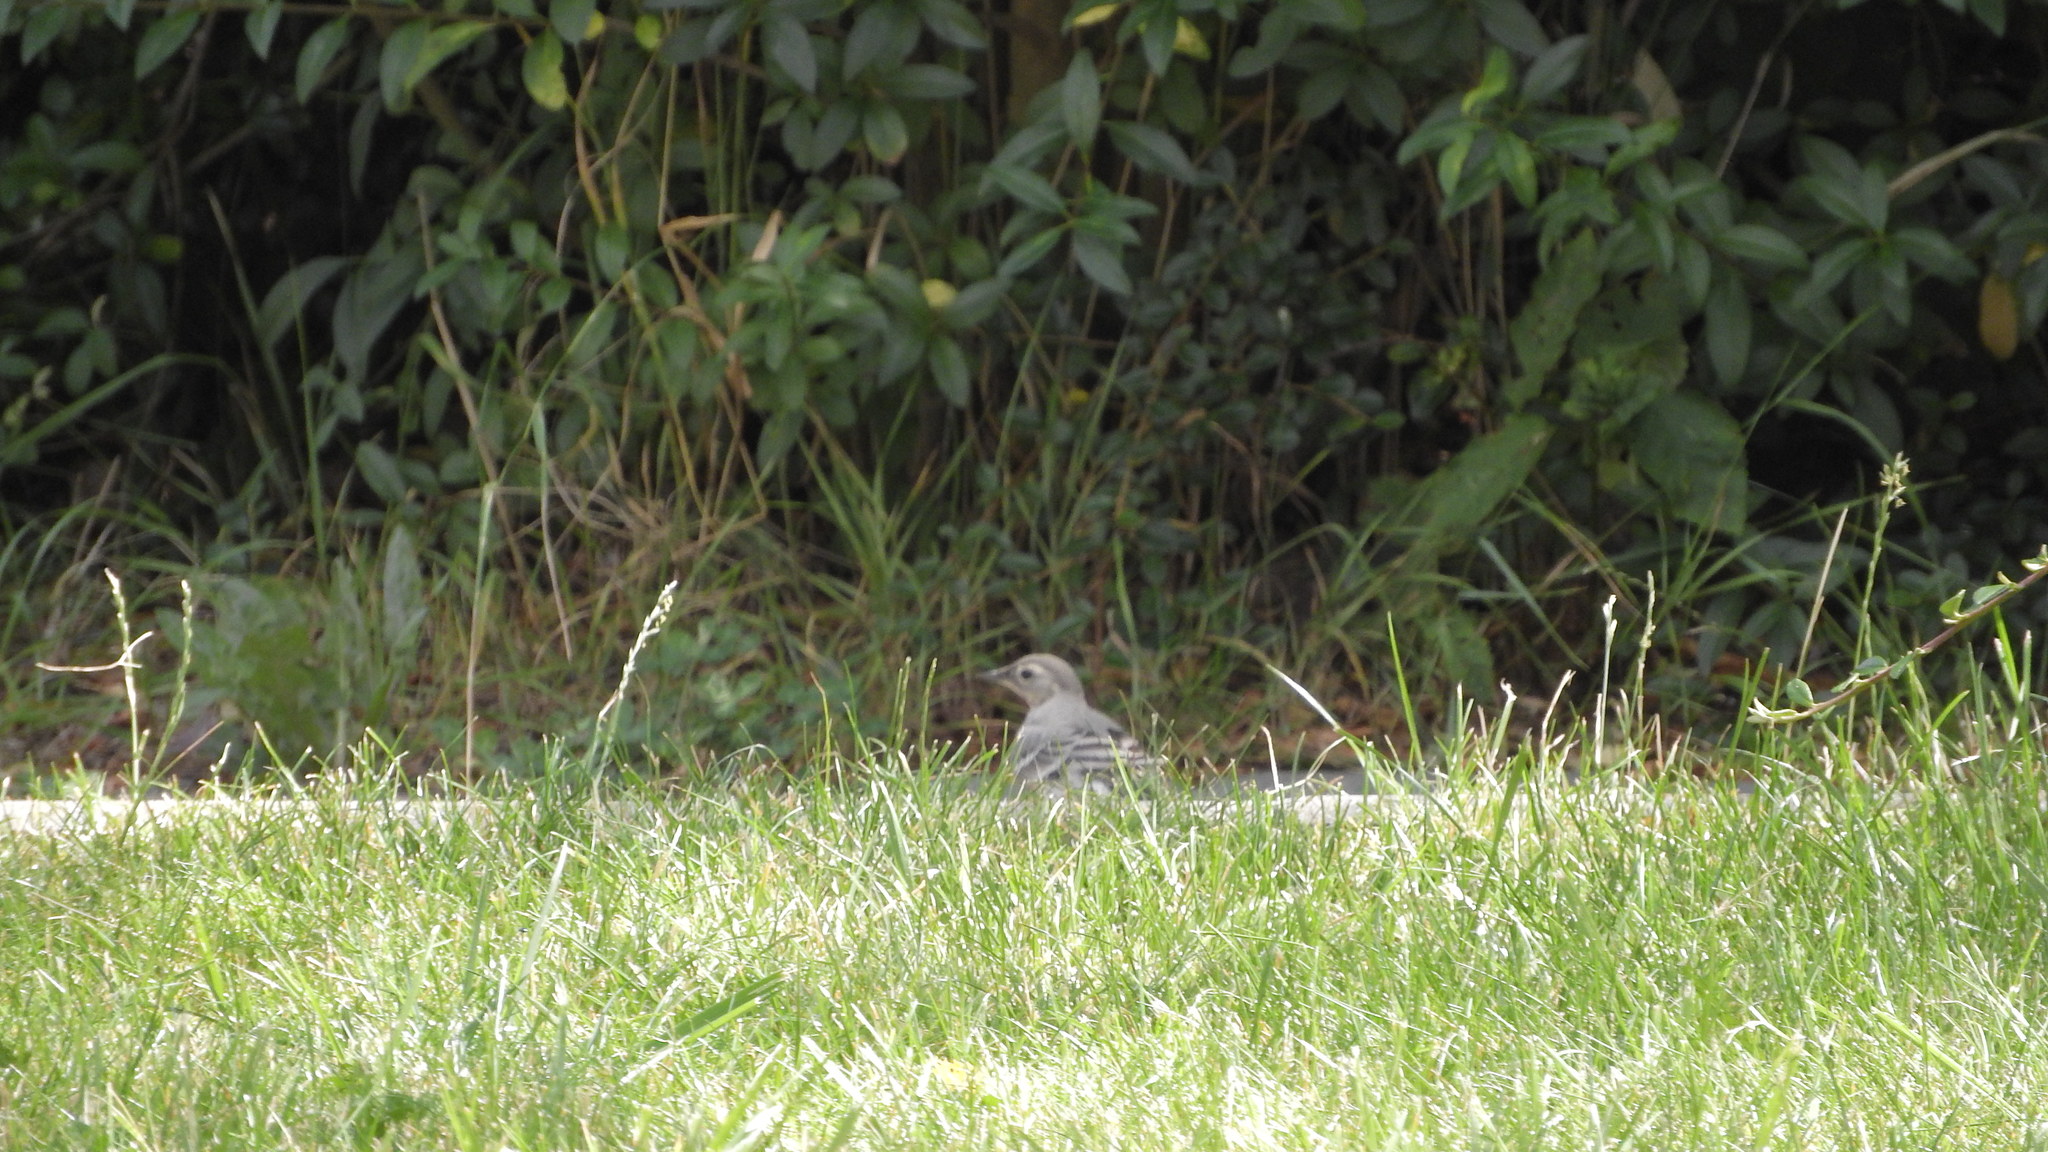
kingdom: Animalia
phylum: Chordata
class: Aves
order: Passeriformes
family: Motacillidae
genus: Motacilla
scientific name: Motacilla alba
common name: White wagtail
